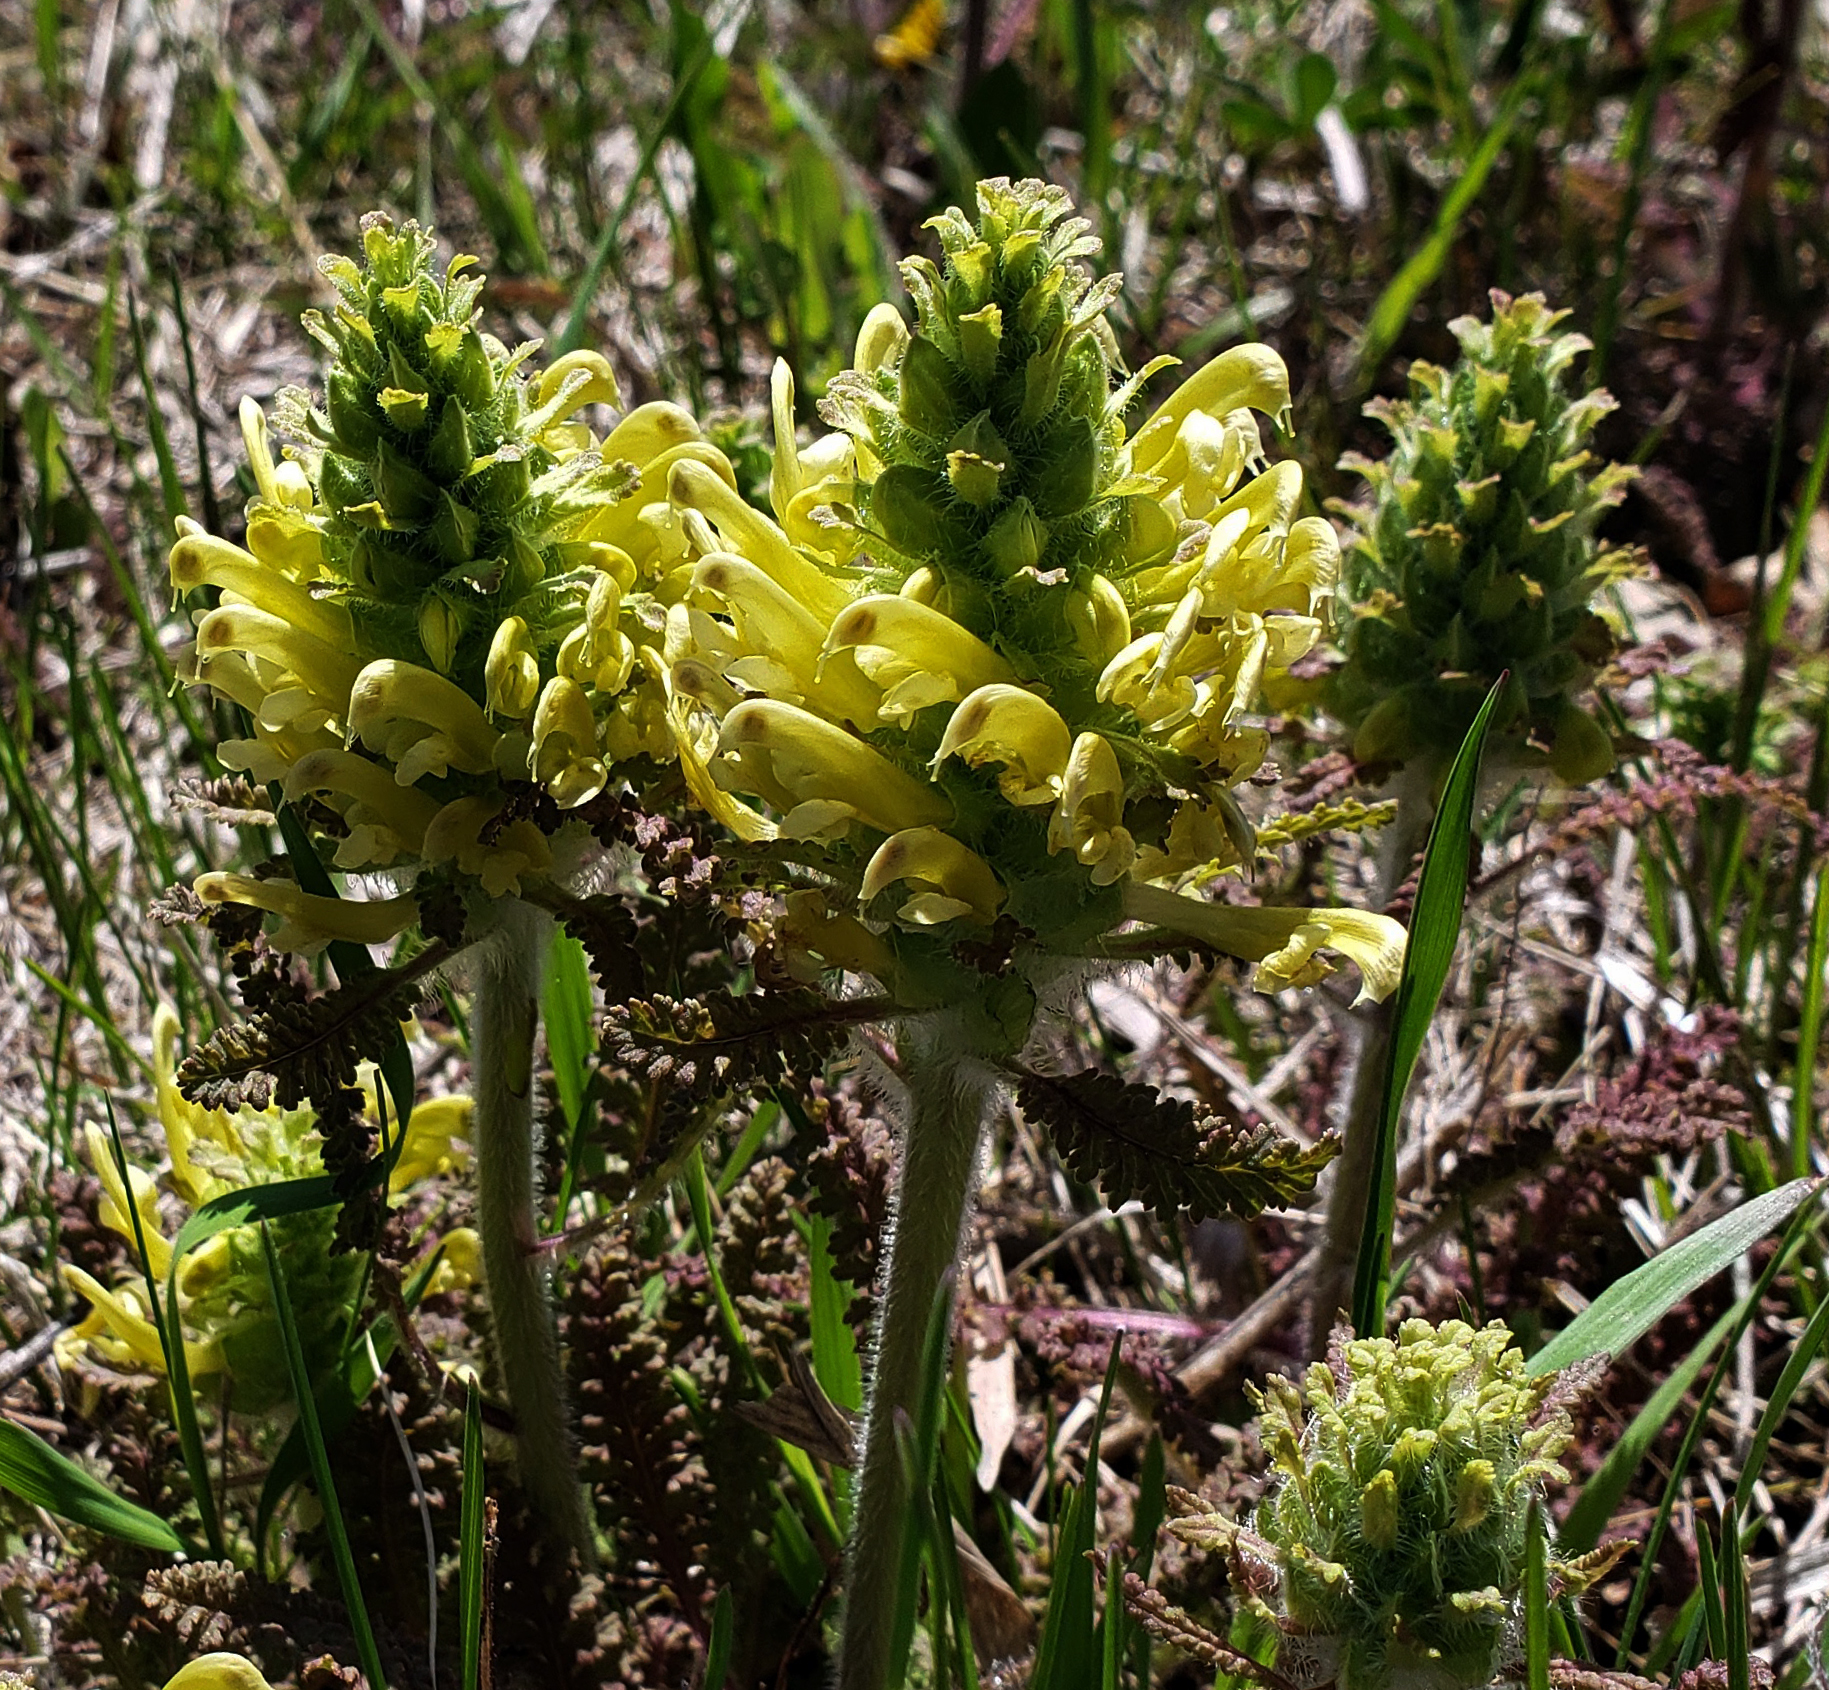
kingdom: Plantae
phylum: Tracheophyta
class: Magnoliopsida
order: Lamiales
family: Orobanchaceae
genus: Pedicularis
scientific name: Pedicularis canadensis
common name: Early lousewort
